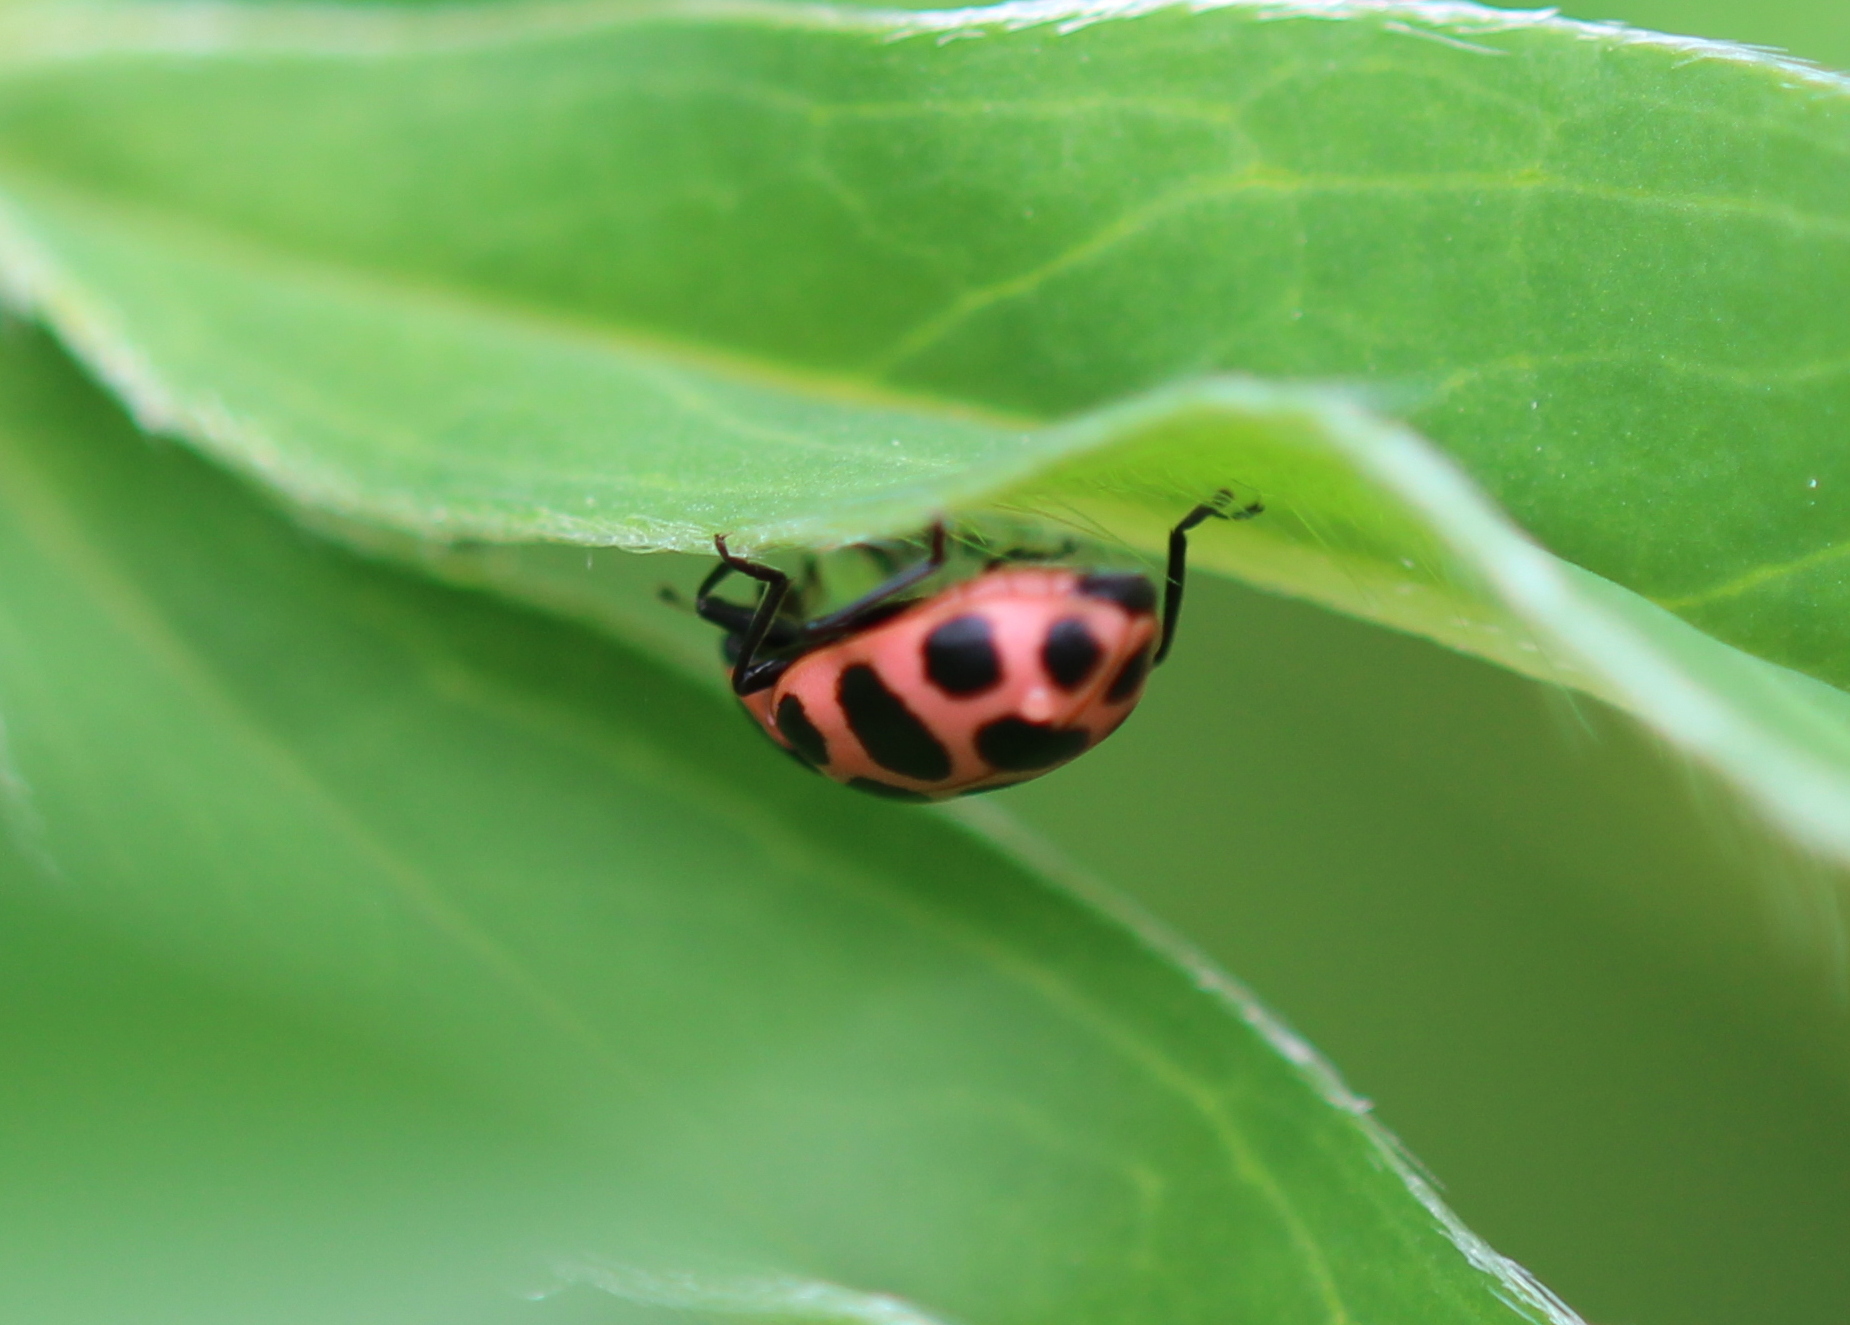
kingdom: Animalia
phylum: Arthropoda
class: Insecta
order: Coleoptera
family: Coccinellidae
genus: Coleomegilla
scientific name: Coleomegilla maculata
